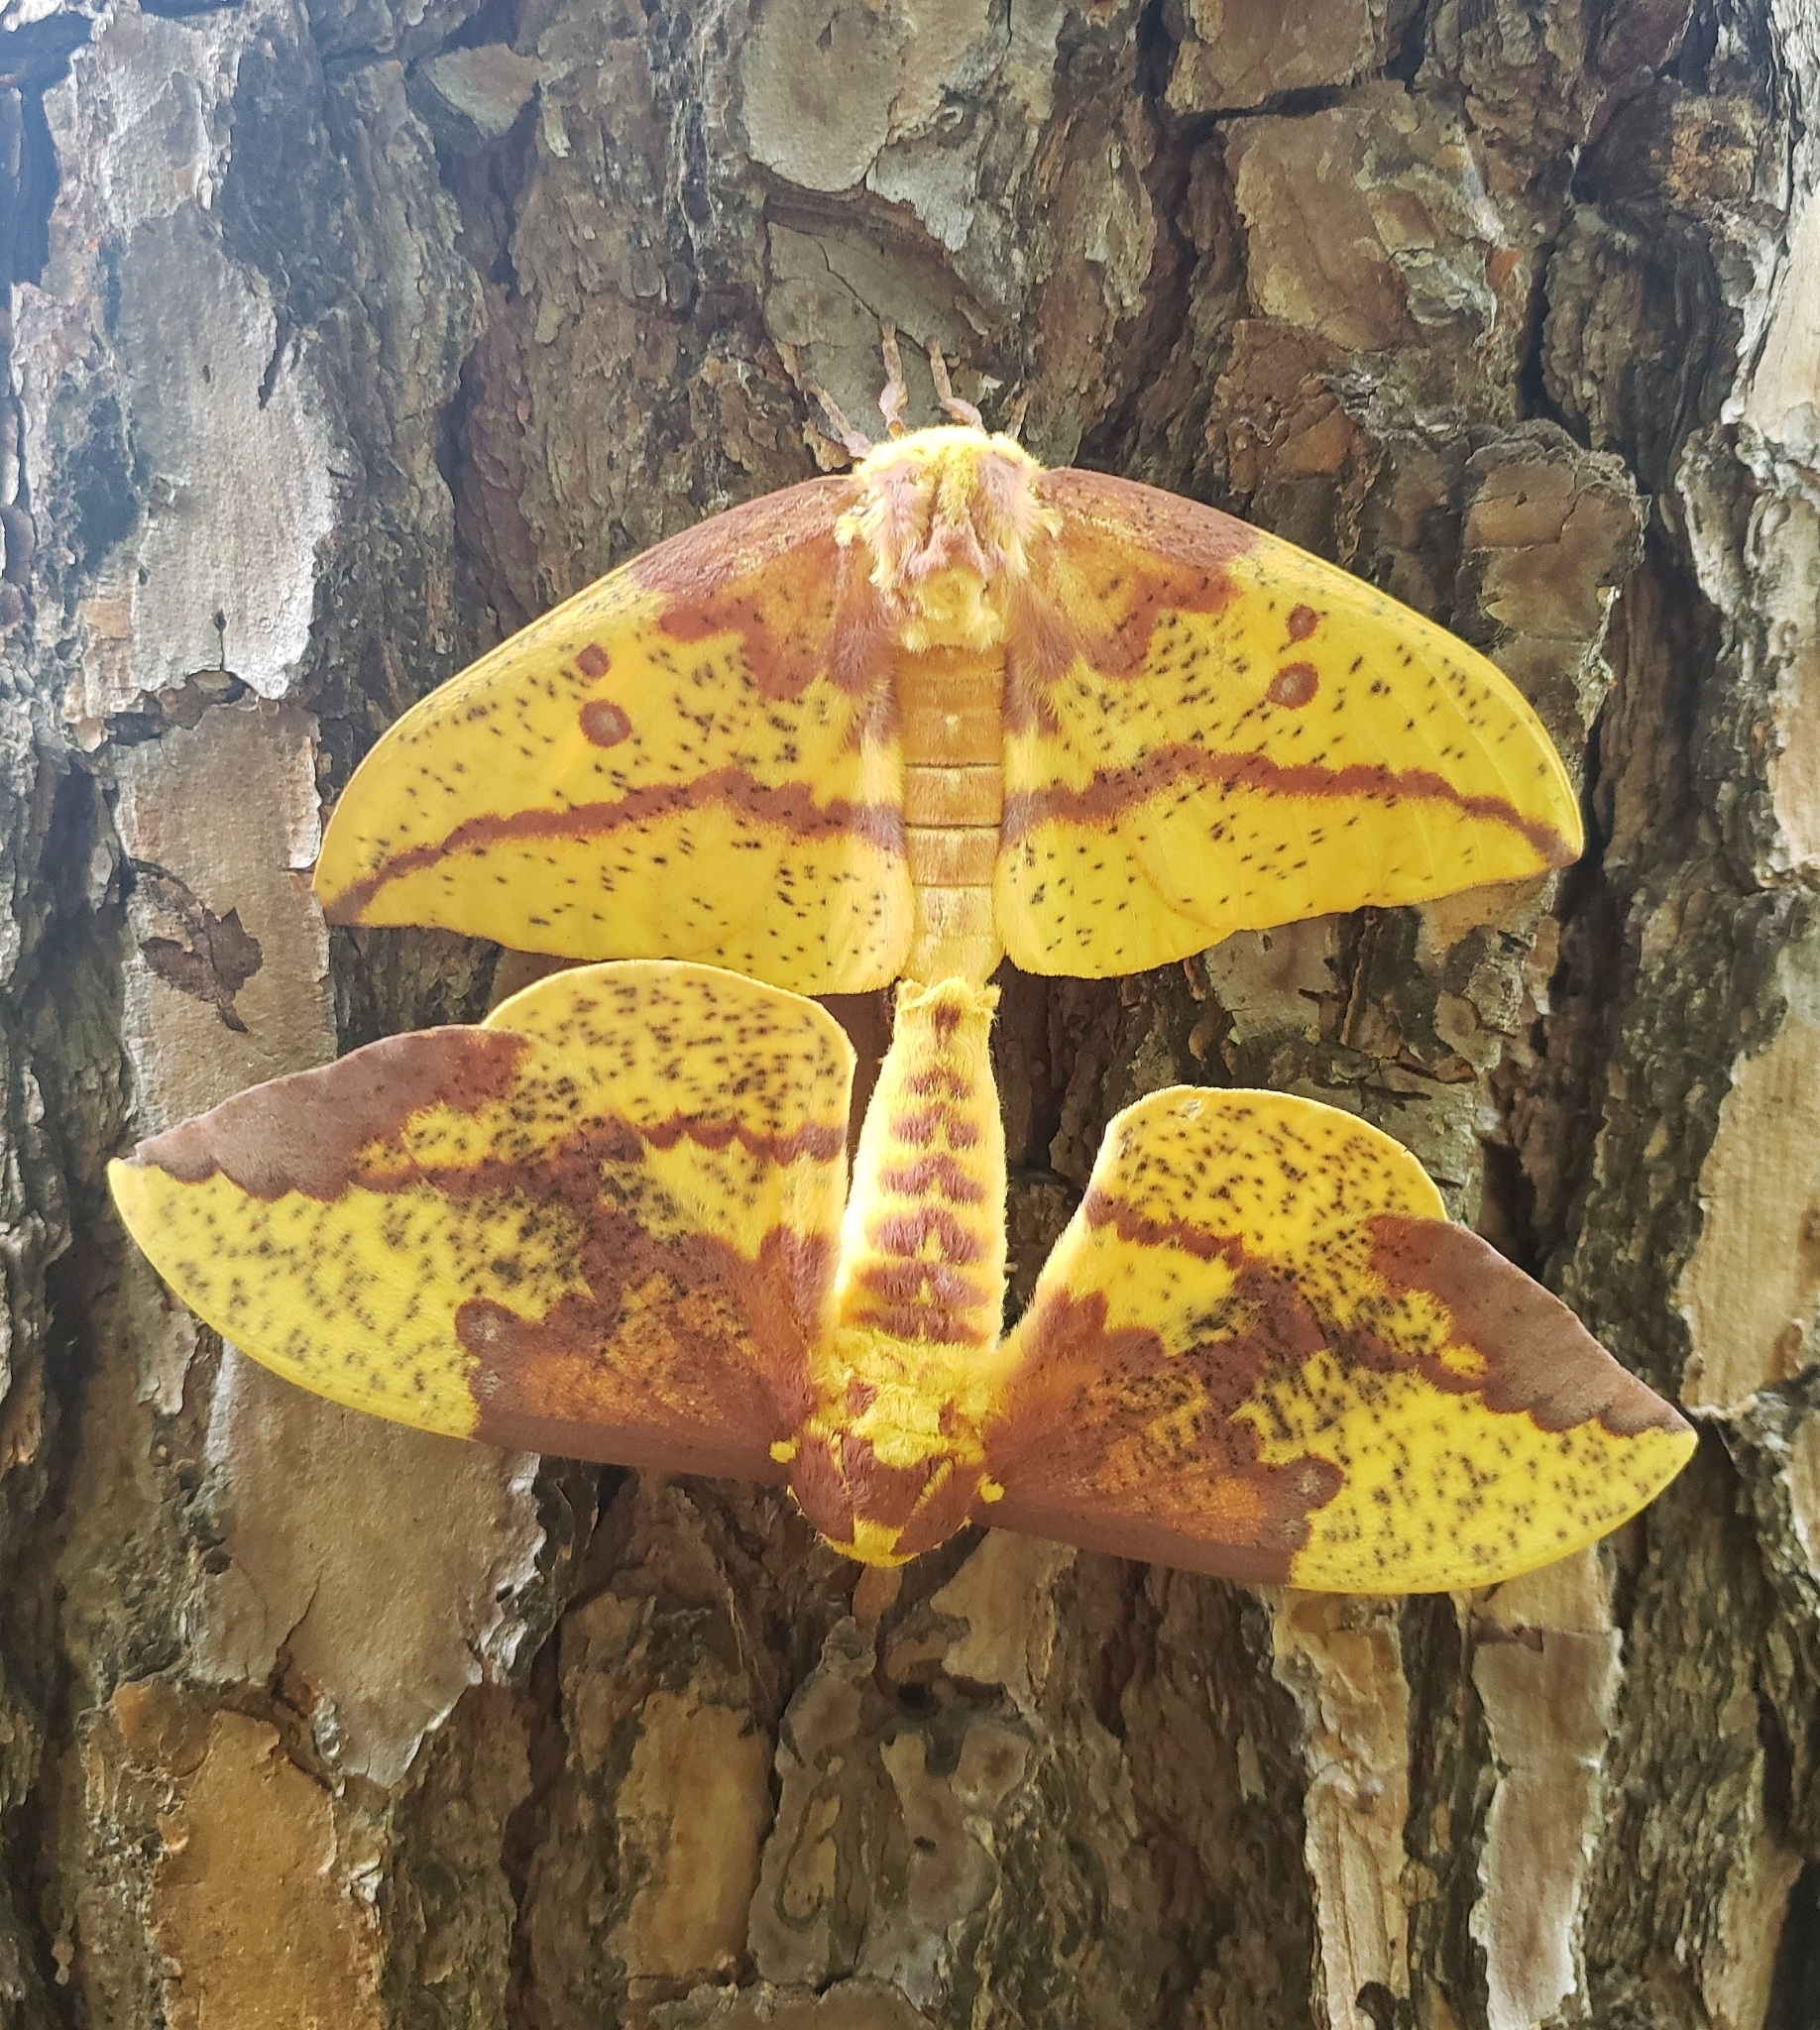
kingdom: Animalia
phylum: Arthropoda
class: Insecta
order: Lepidoptera
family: Saturniidae
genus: Eacles
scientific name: Eacles imperialis
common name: Imperial moth
